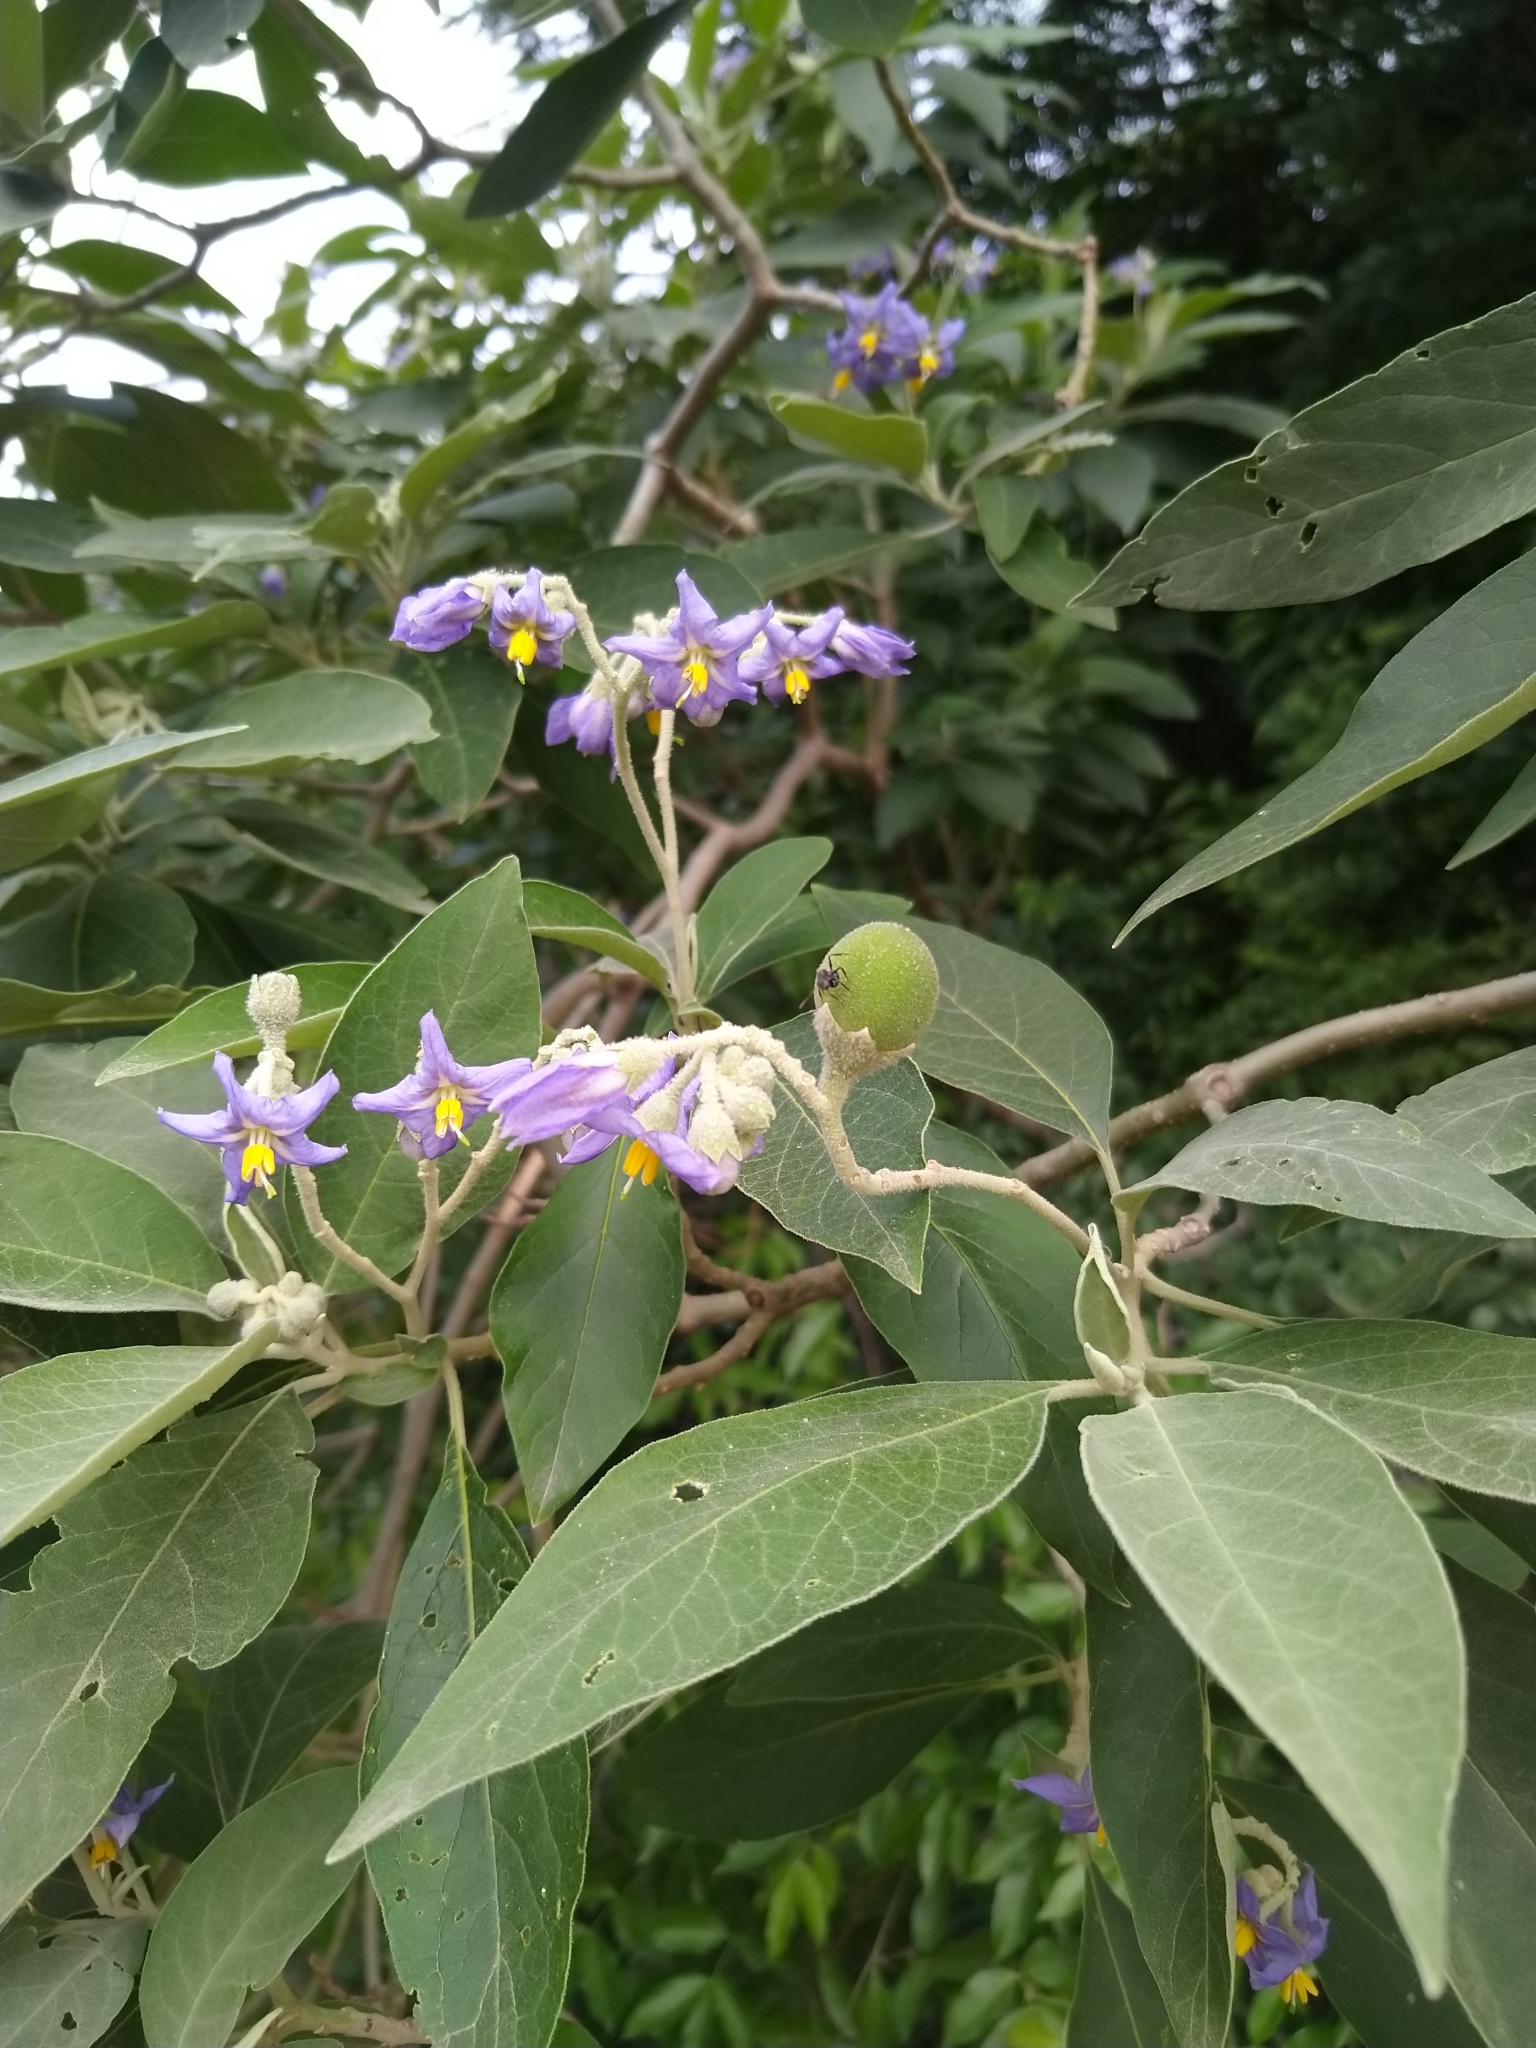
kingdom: Plantae
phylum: Tracheophyta
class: Magnoliopsida
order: Solanales
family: Solanaceae
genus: Solanum
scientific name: Solanum granulosoleprosum
